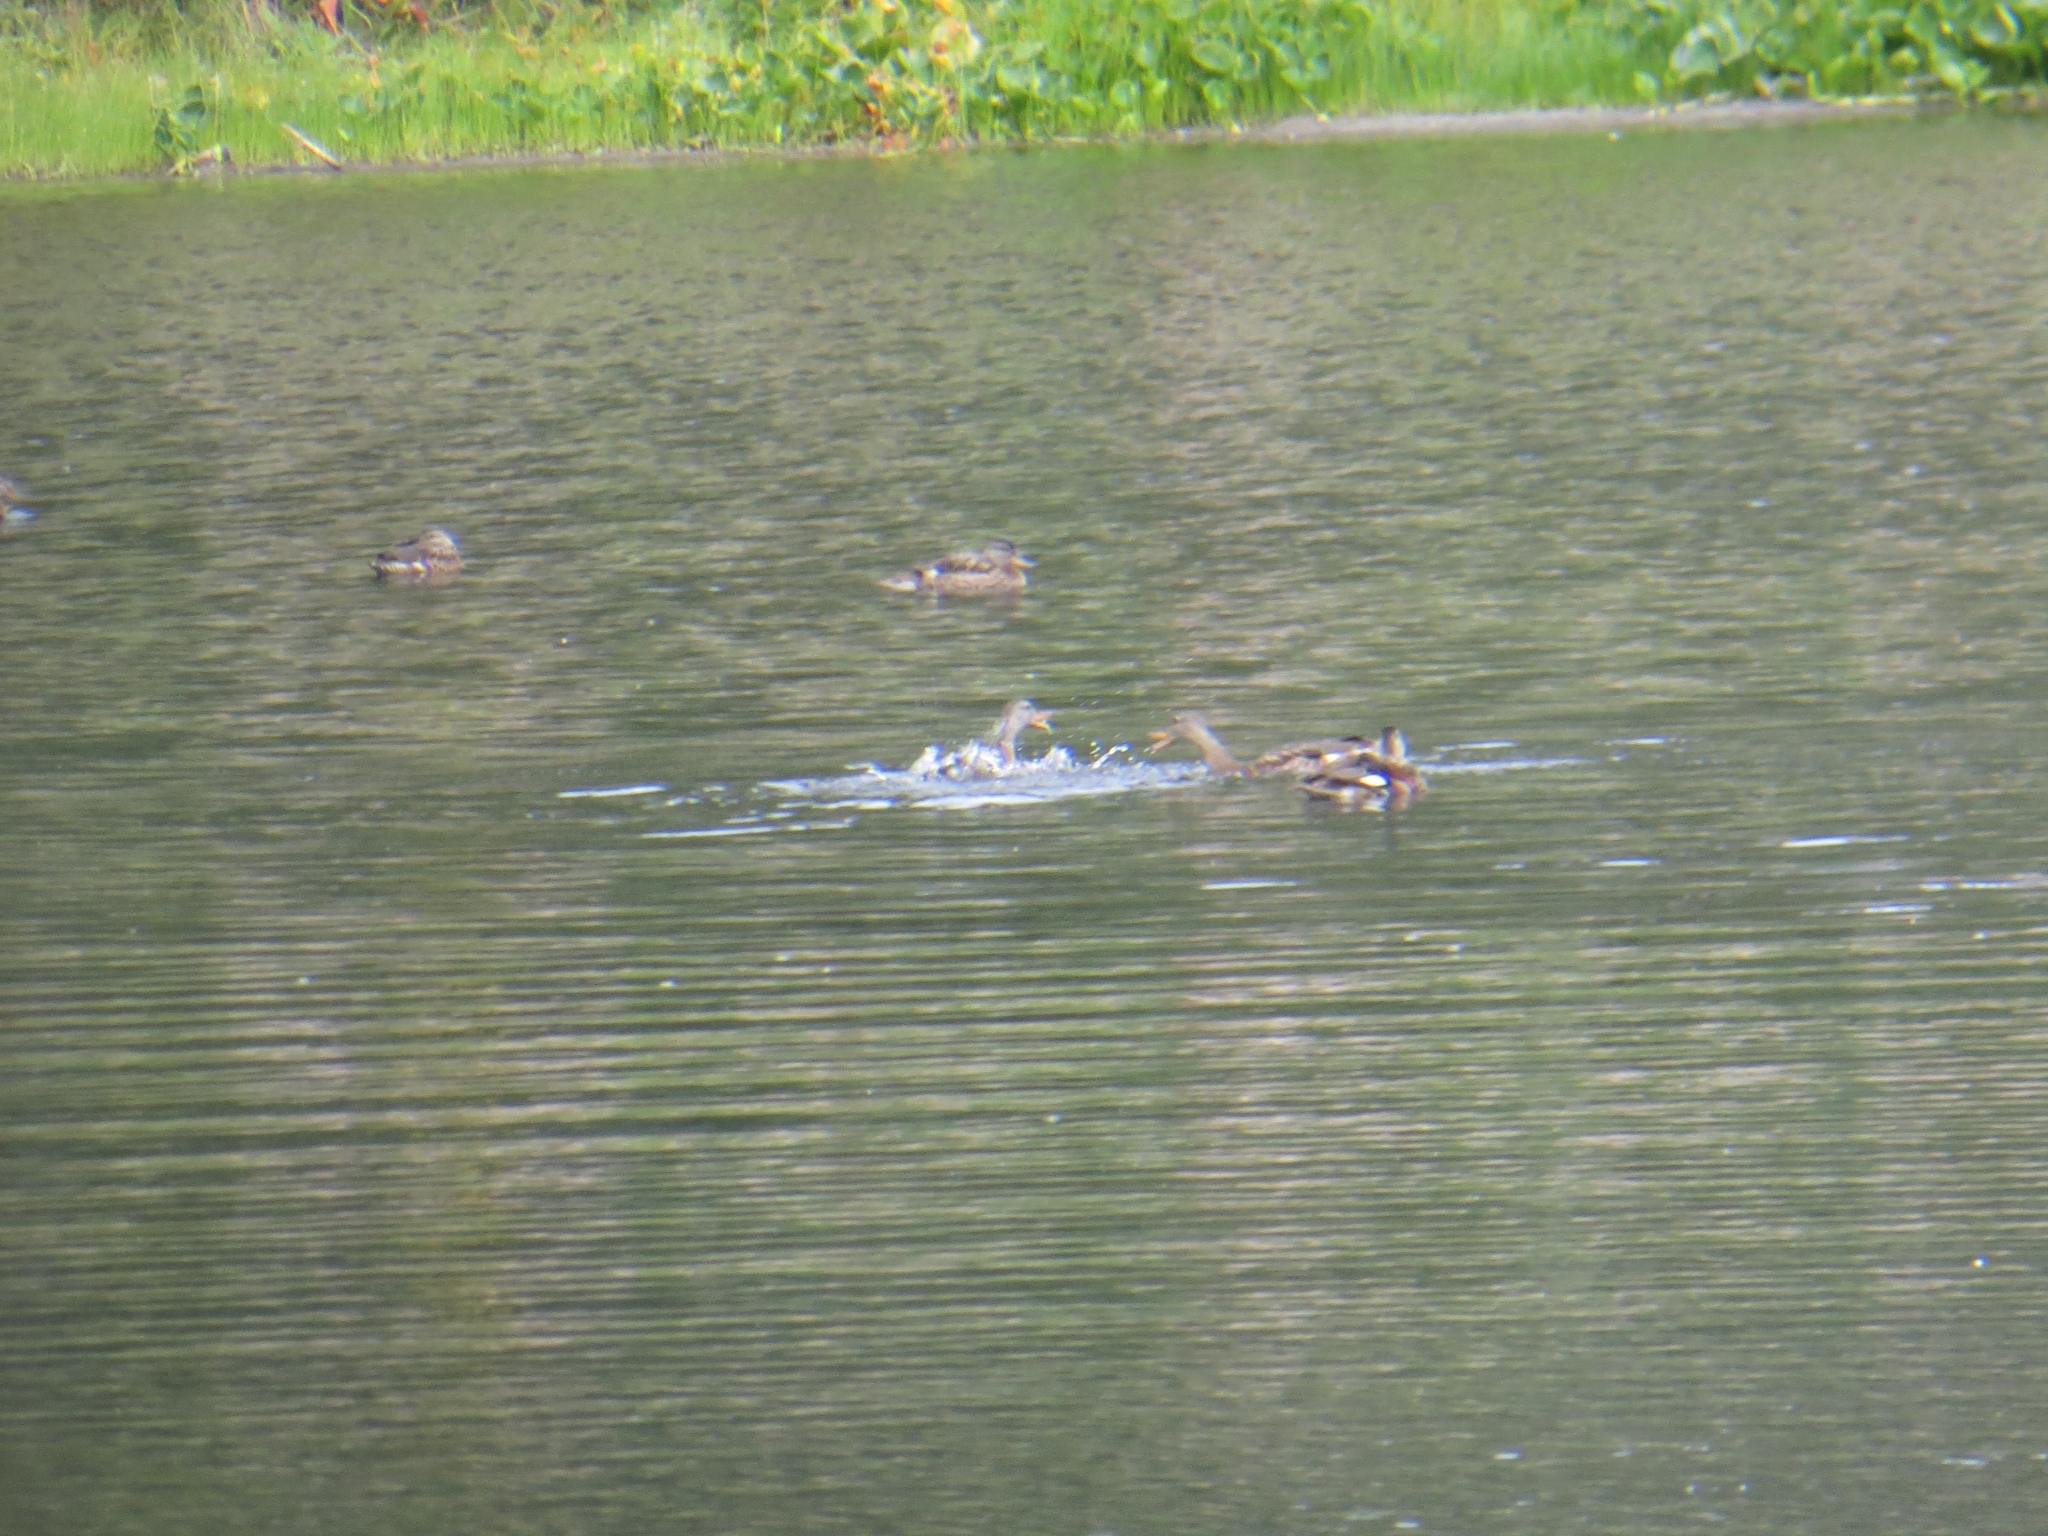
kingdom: Animalia
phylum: Chordata
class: Aves
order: Anseriformes
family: Anatidae
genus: Mareca
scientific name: Mareca strepera
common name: Gadwall
